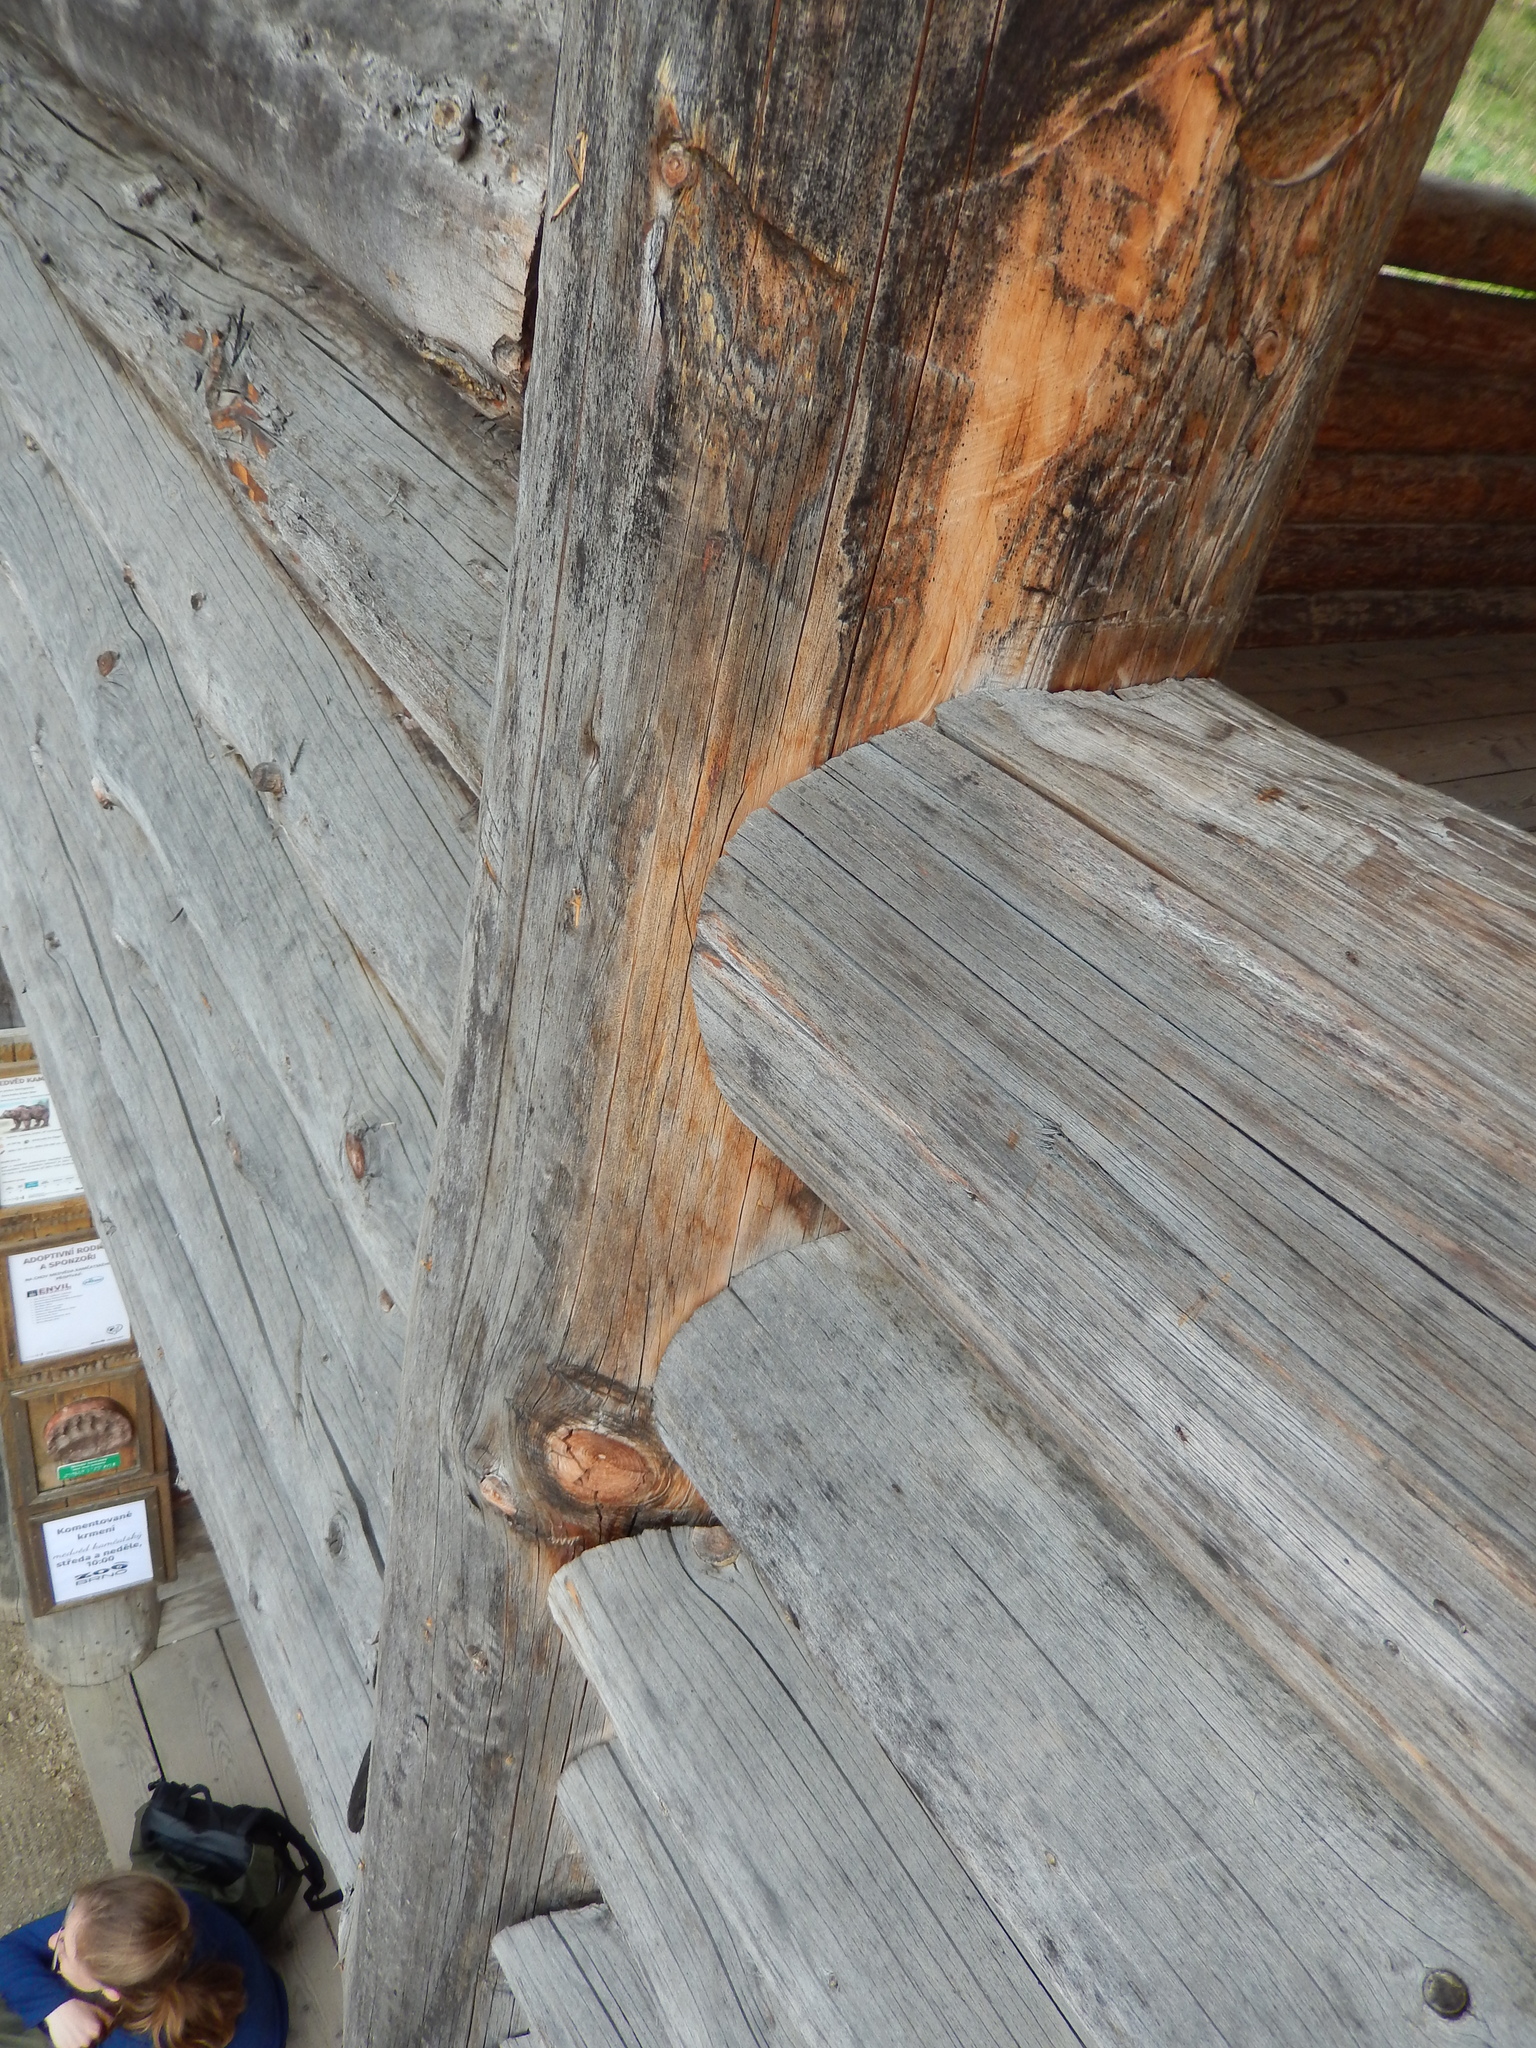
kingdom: Animalia
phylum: Arthropoda
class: Insecta
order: Hymenoptera
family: Formicidae
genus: Camponotus
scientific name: Camponotus truncatus
